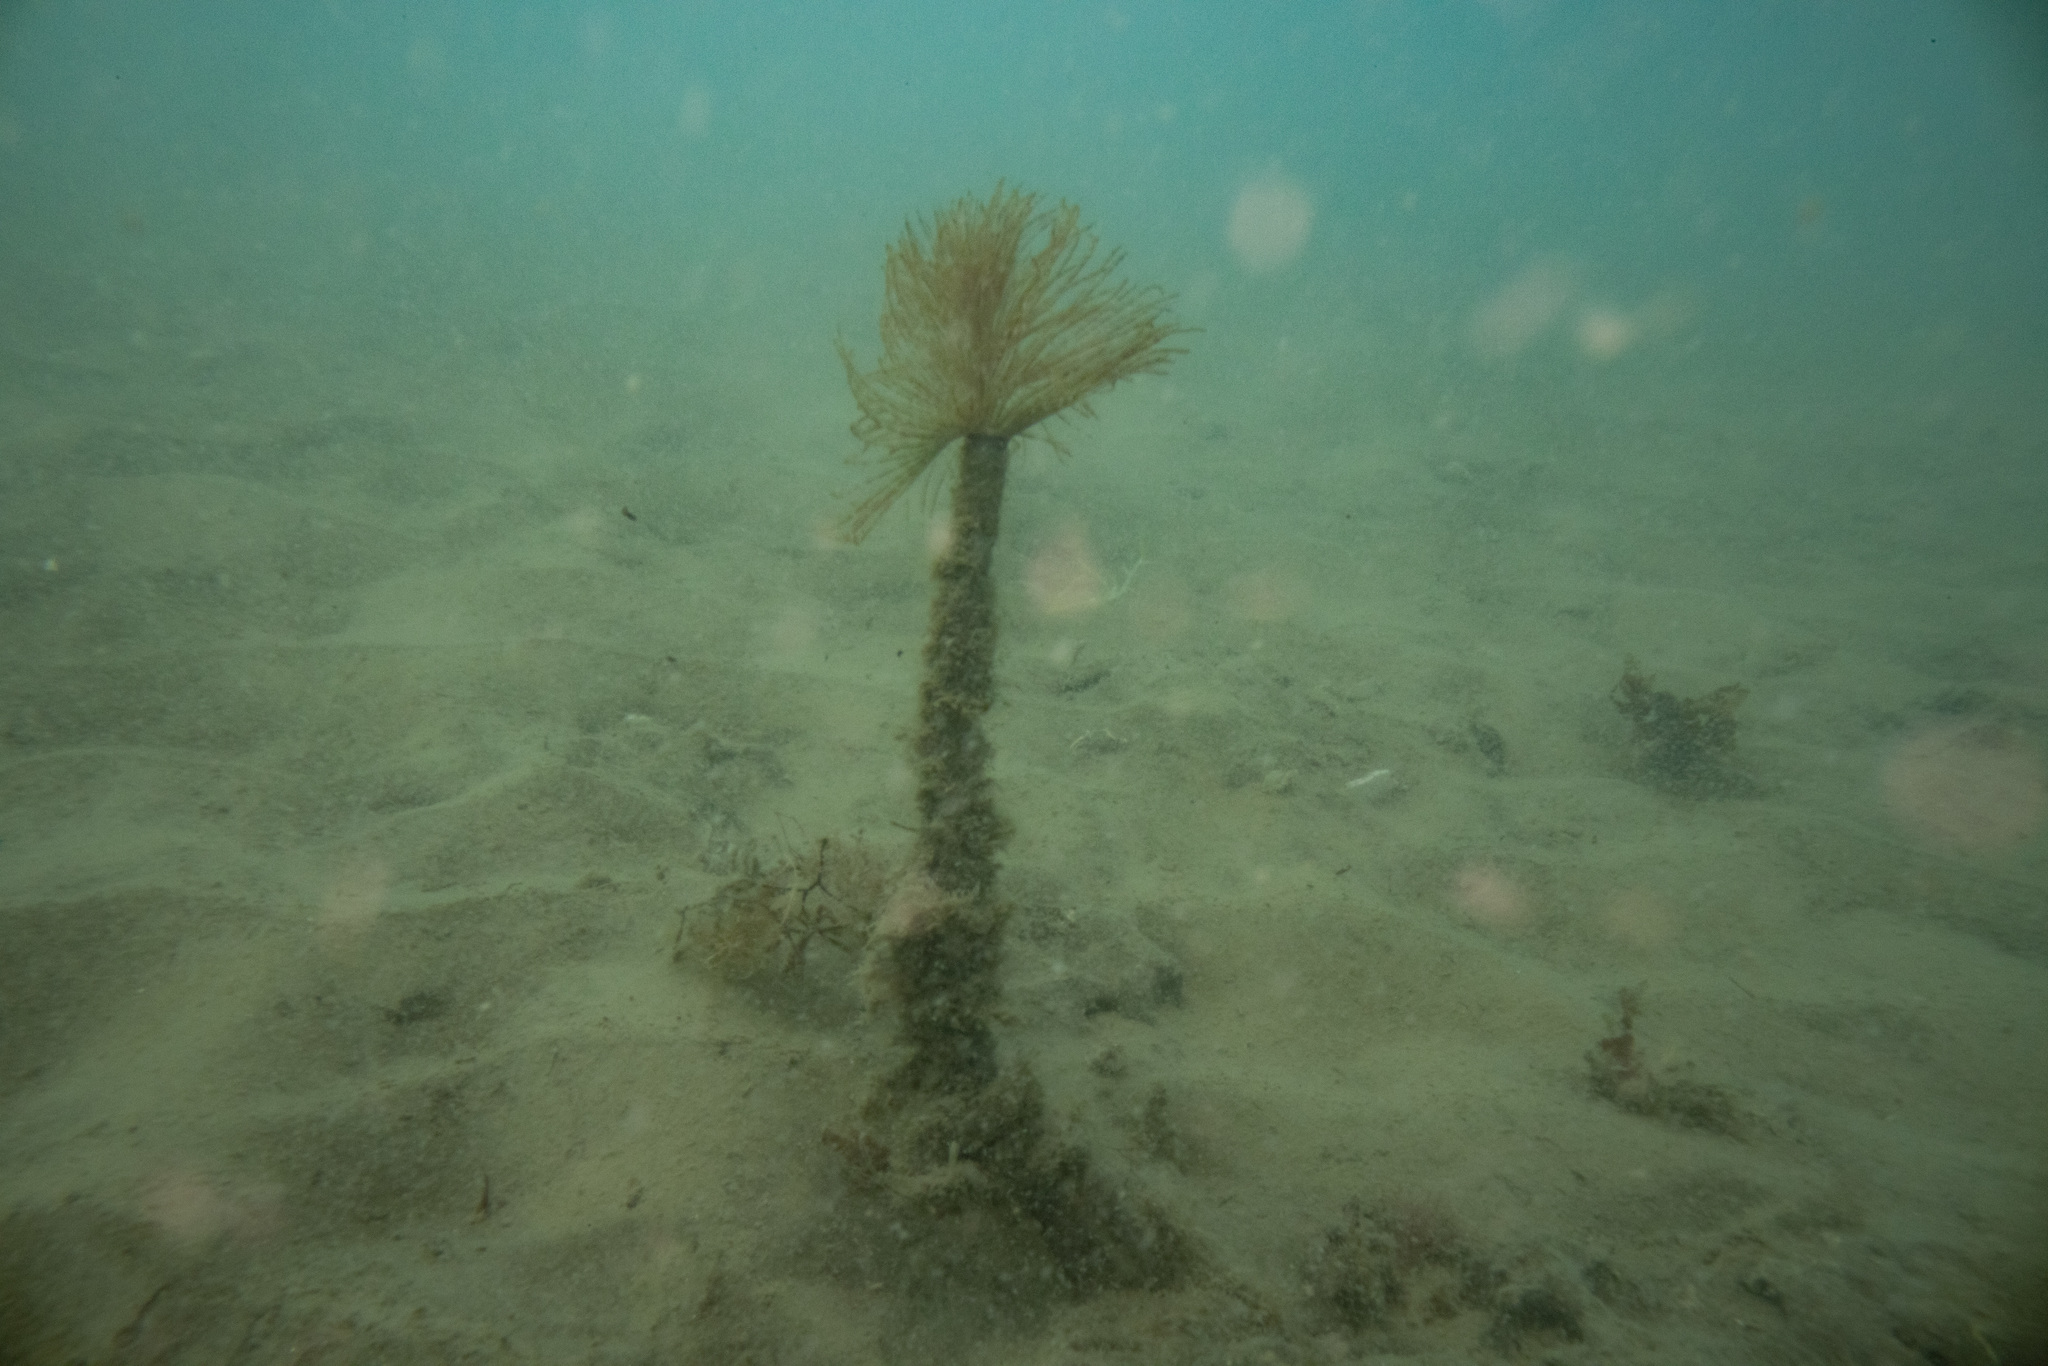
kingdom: Animalia
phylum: Annelida
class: Polychaeta
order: Sabellida
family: Sabellidae
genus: Sabella
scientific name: Sabella spallanzanii
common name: Feather duster worm
